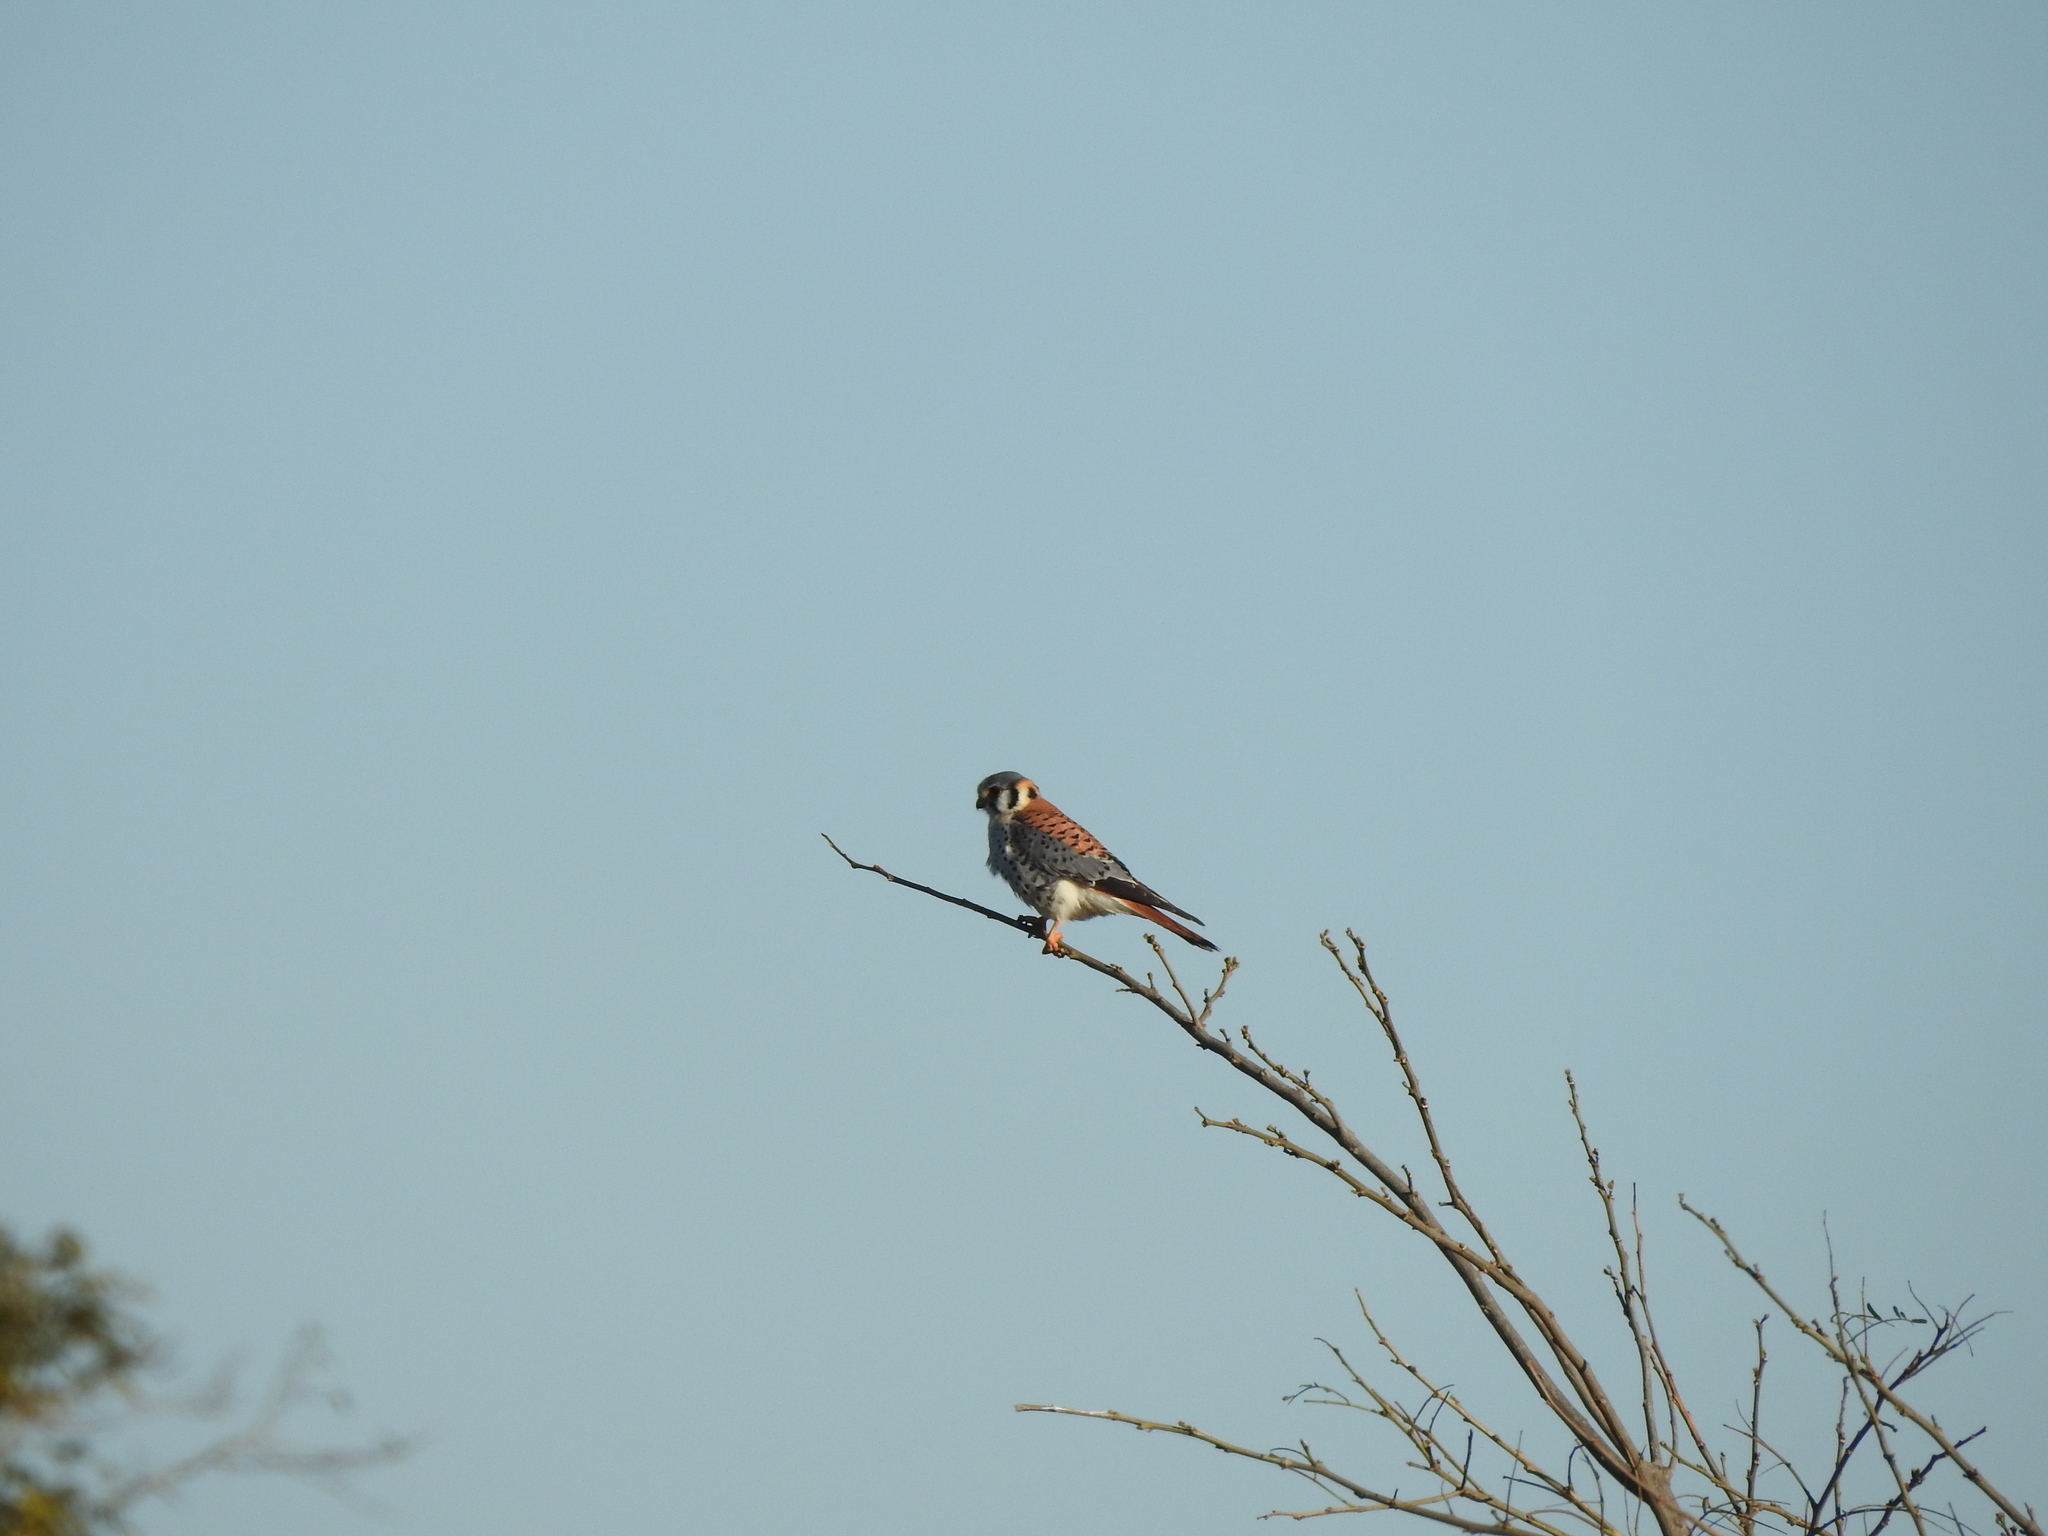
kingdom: Animalia
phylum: Chordata
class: Aves
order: Falconiformes
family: Falconidae
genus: Falco
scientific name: Falco sparverius
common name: American kestrel
